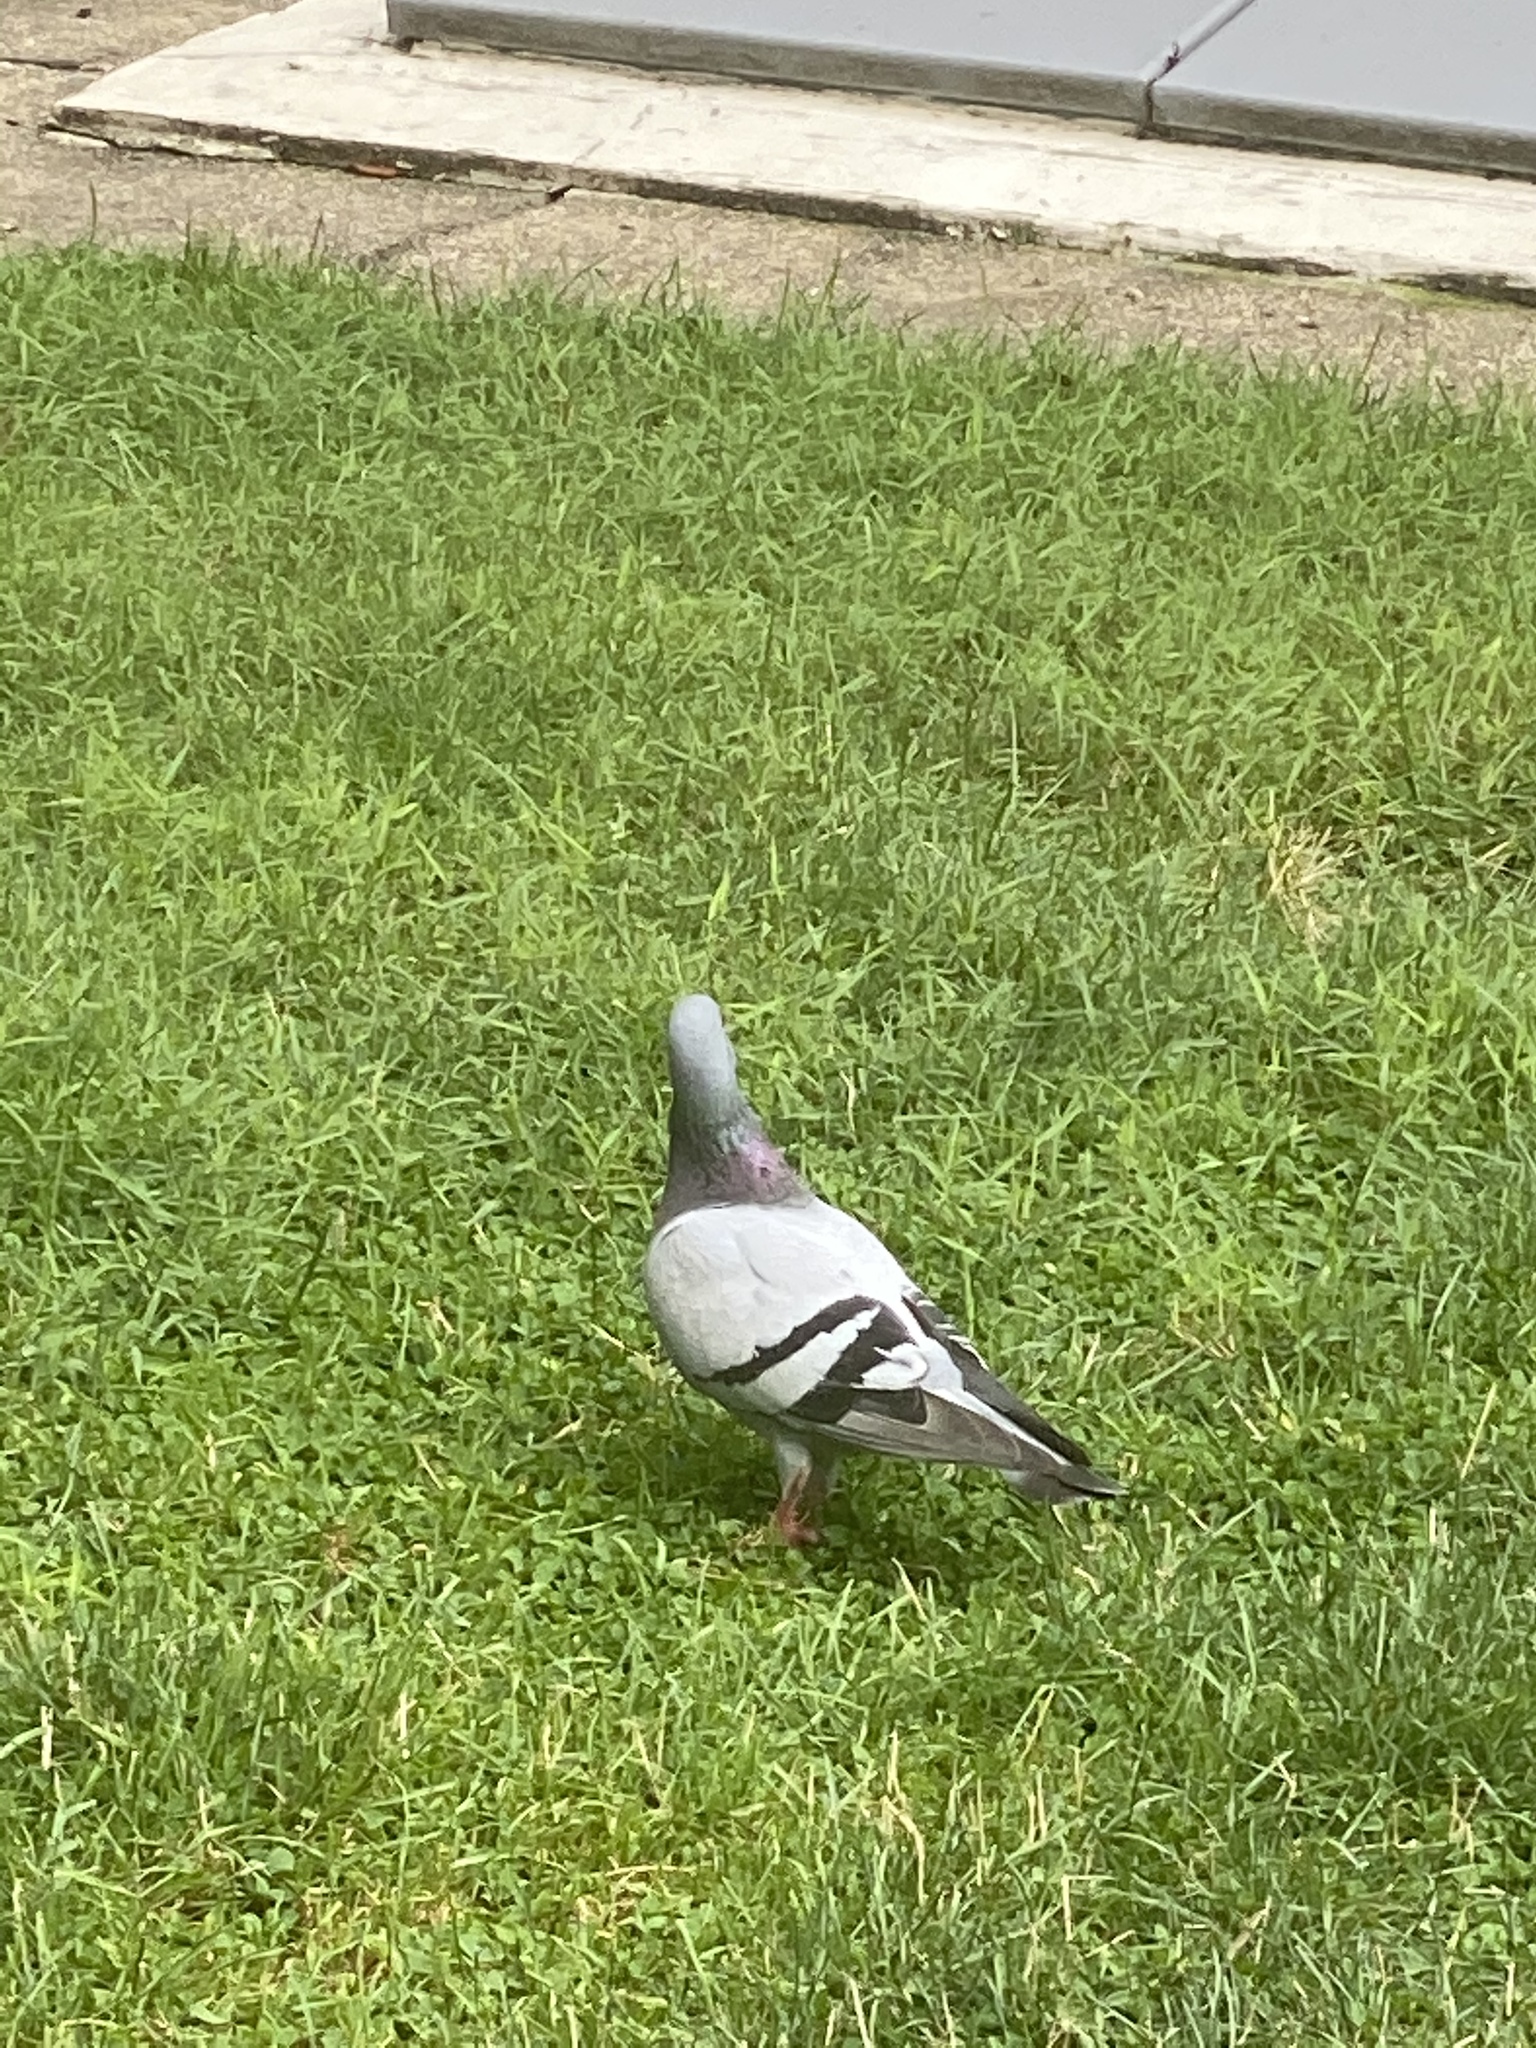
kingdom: Animalia
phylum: Chordata
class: Aves
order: Columbiformes
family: Columbidae
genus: Columba
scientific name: Columba livia
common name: Rock pigeon
